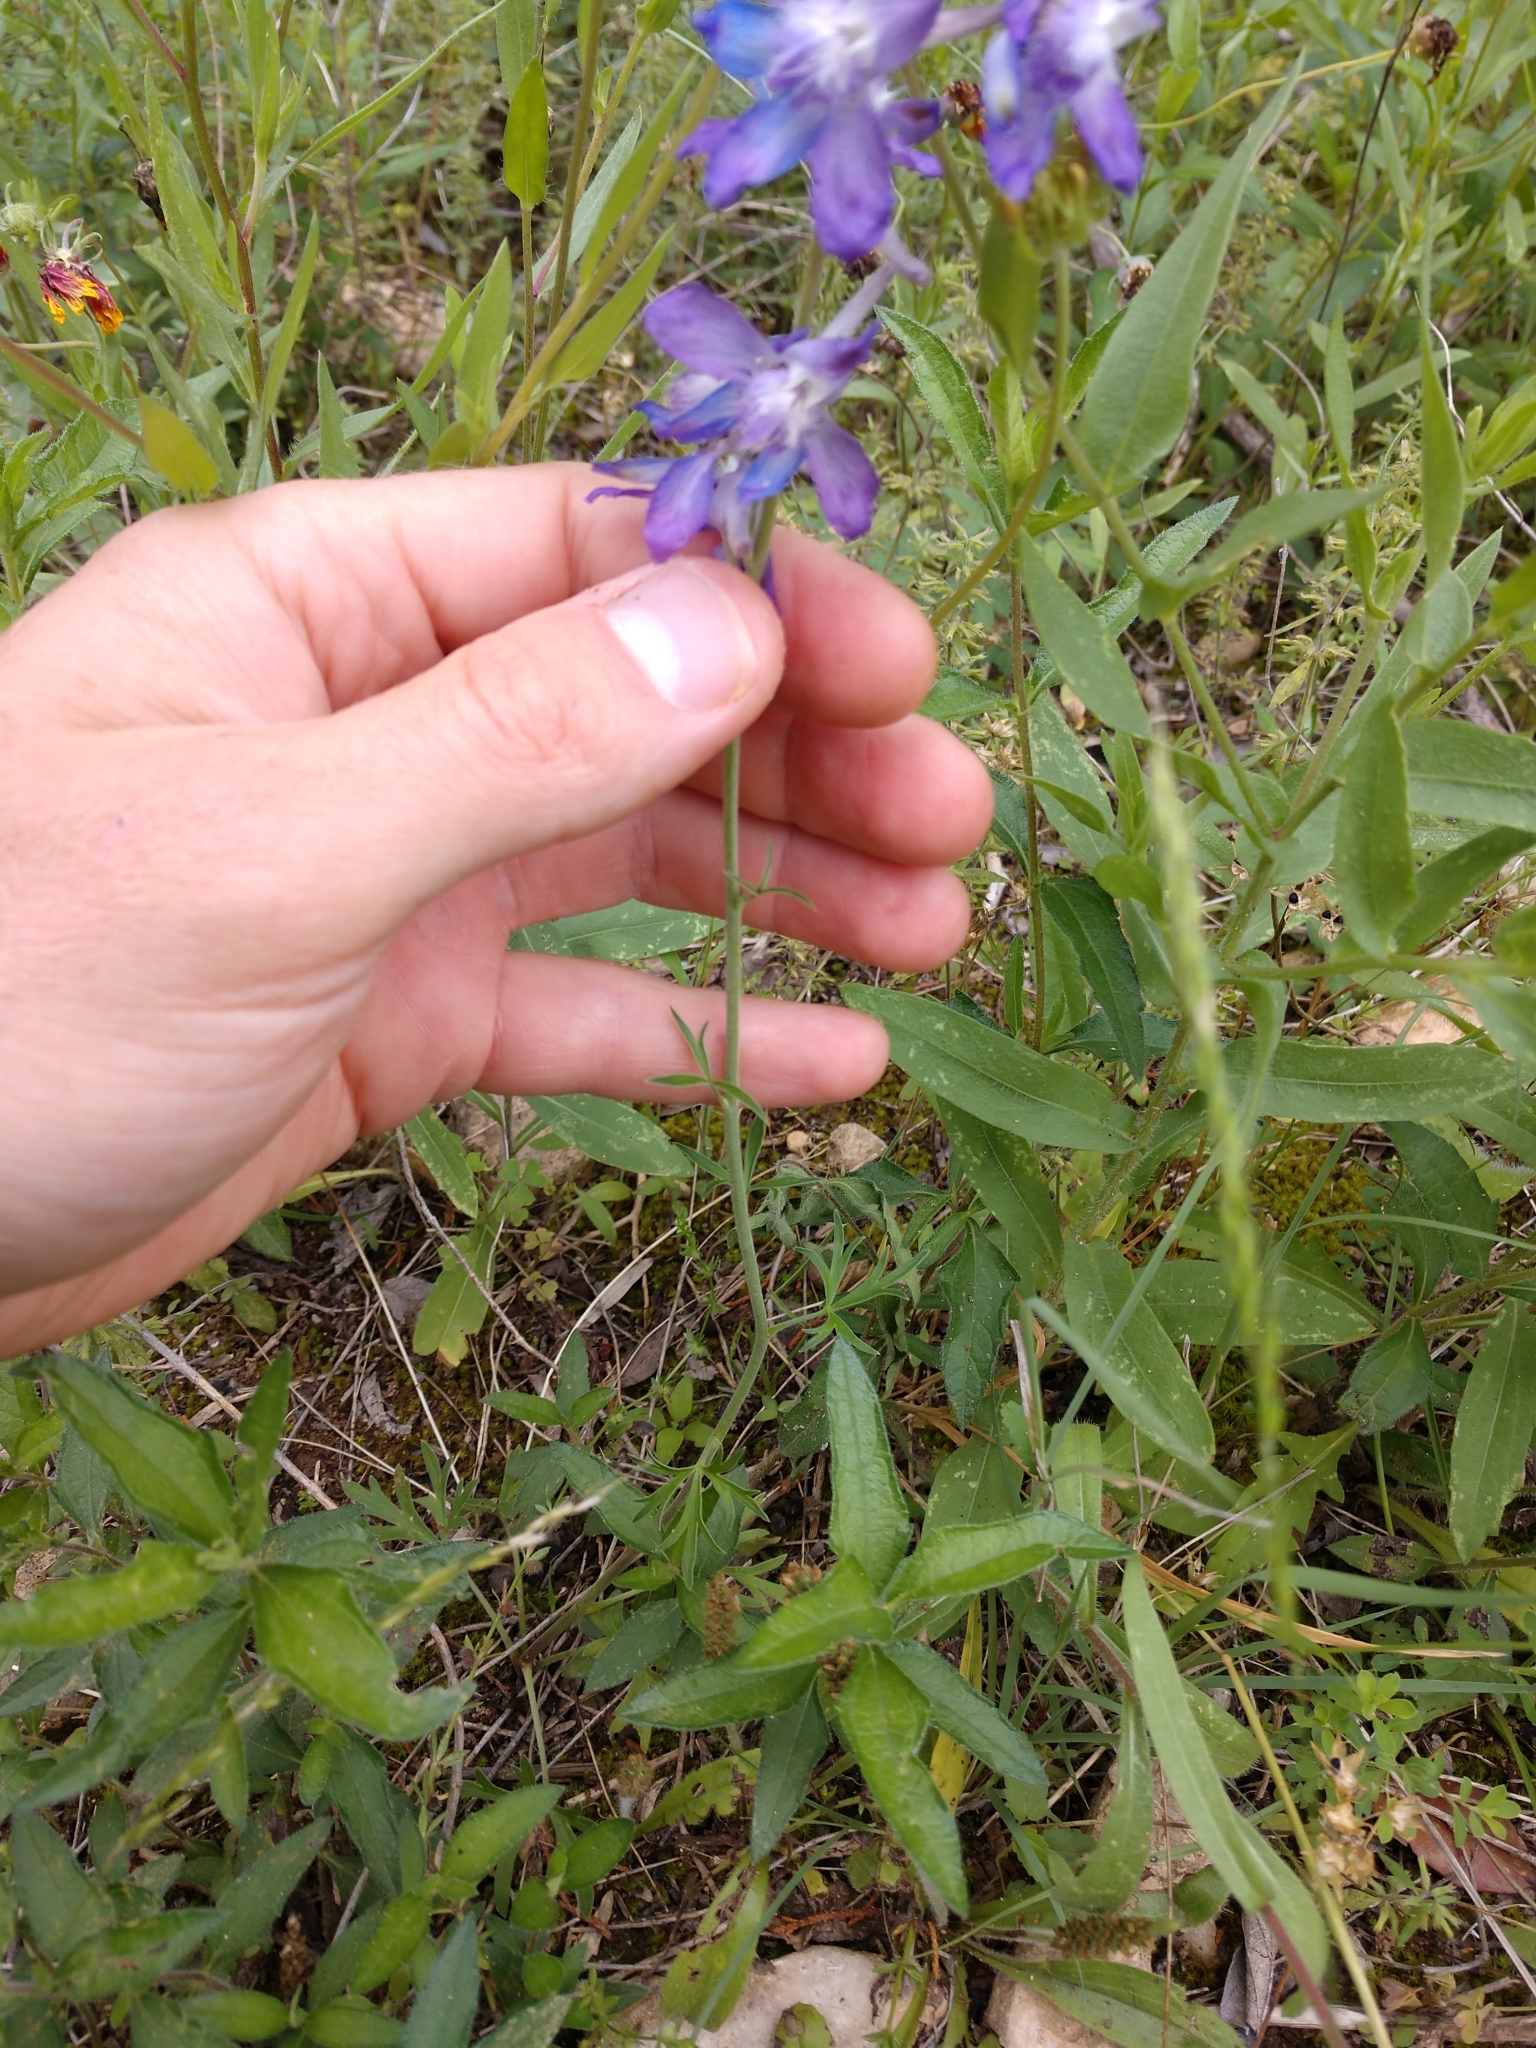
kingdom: Plantae
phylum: Tracheophyta
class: Magnoliopsida
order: Ranunculales
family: Ranunculaceae
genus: Delphinium
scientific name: Delphinium carolinianum
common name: Carolina larkspur
